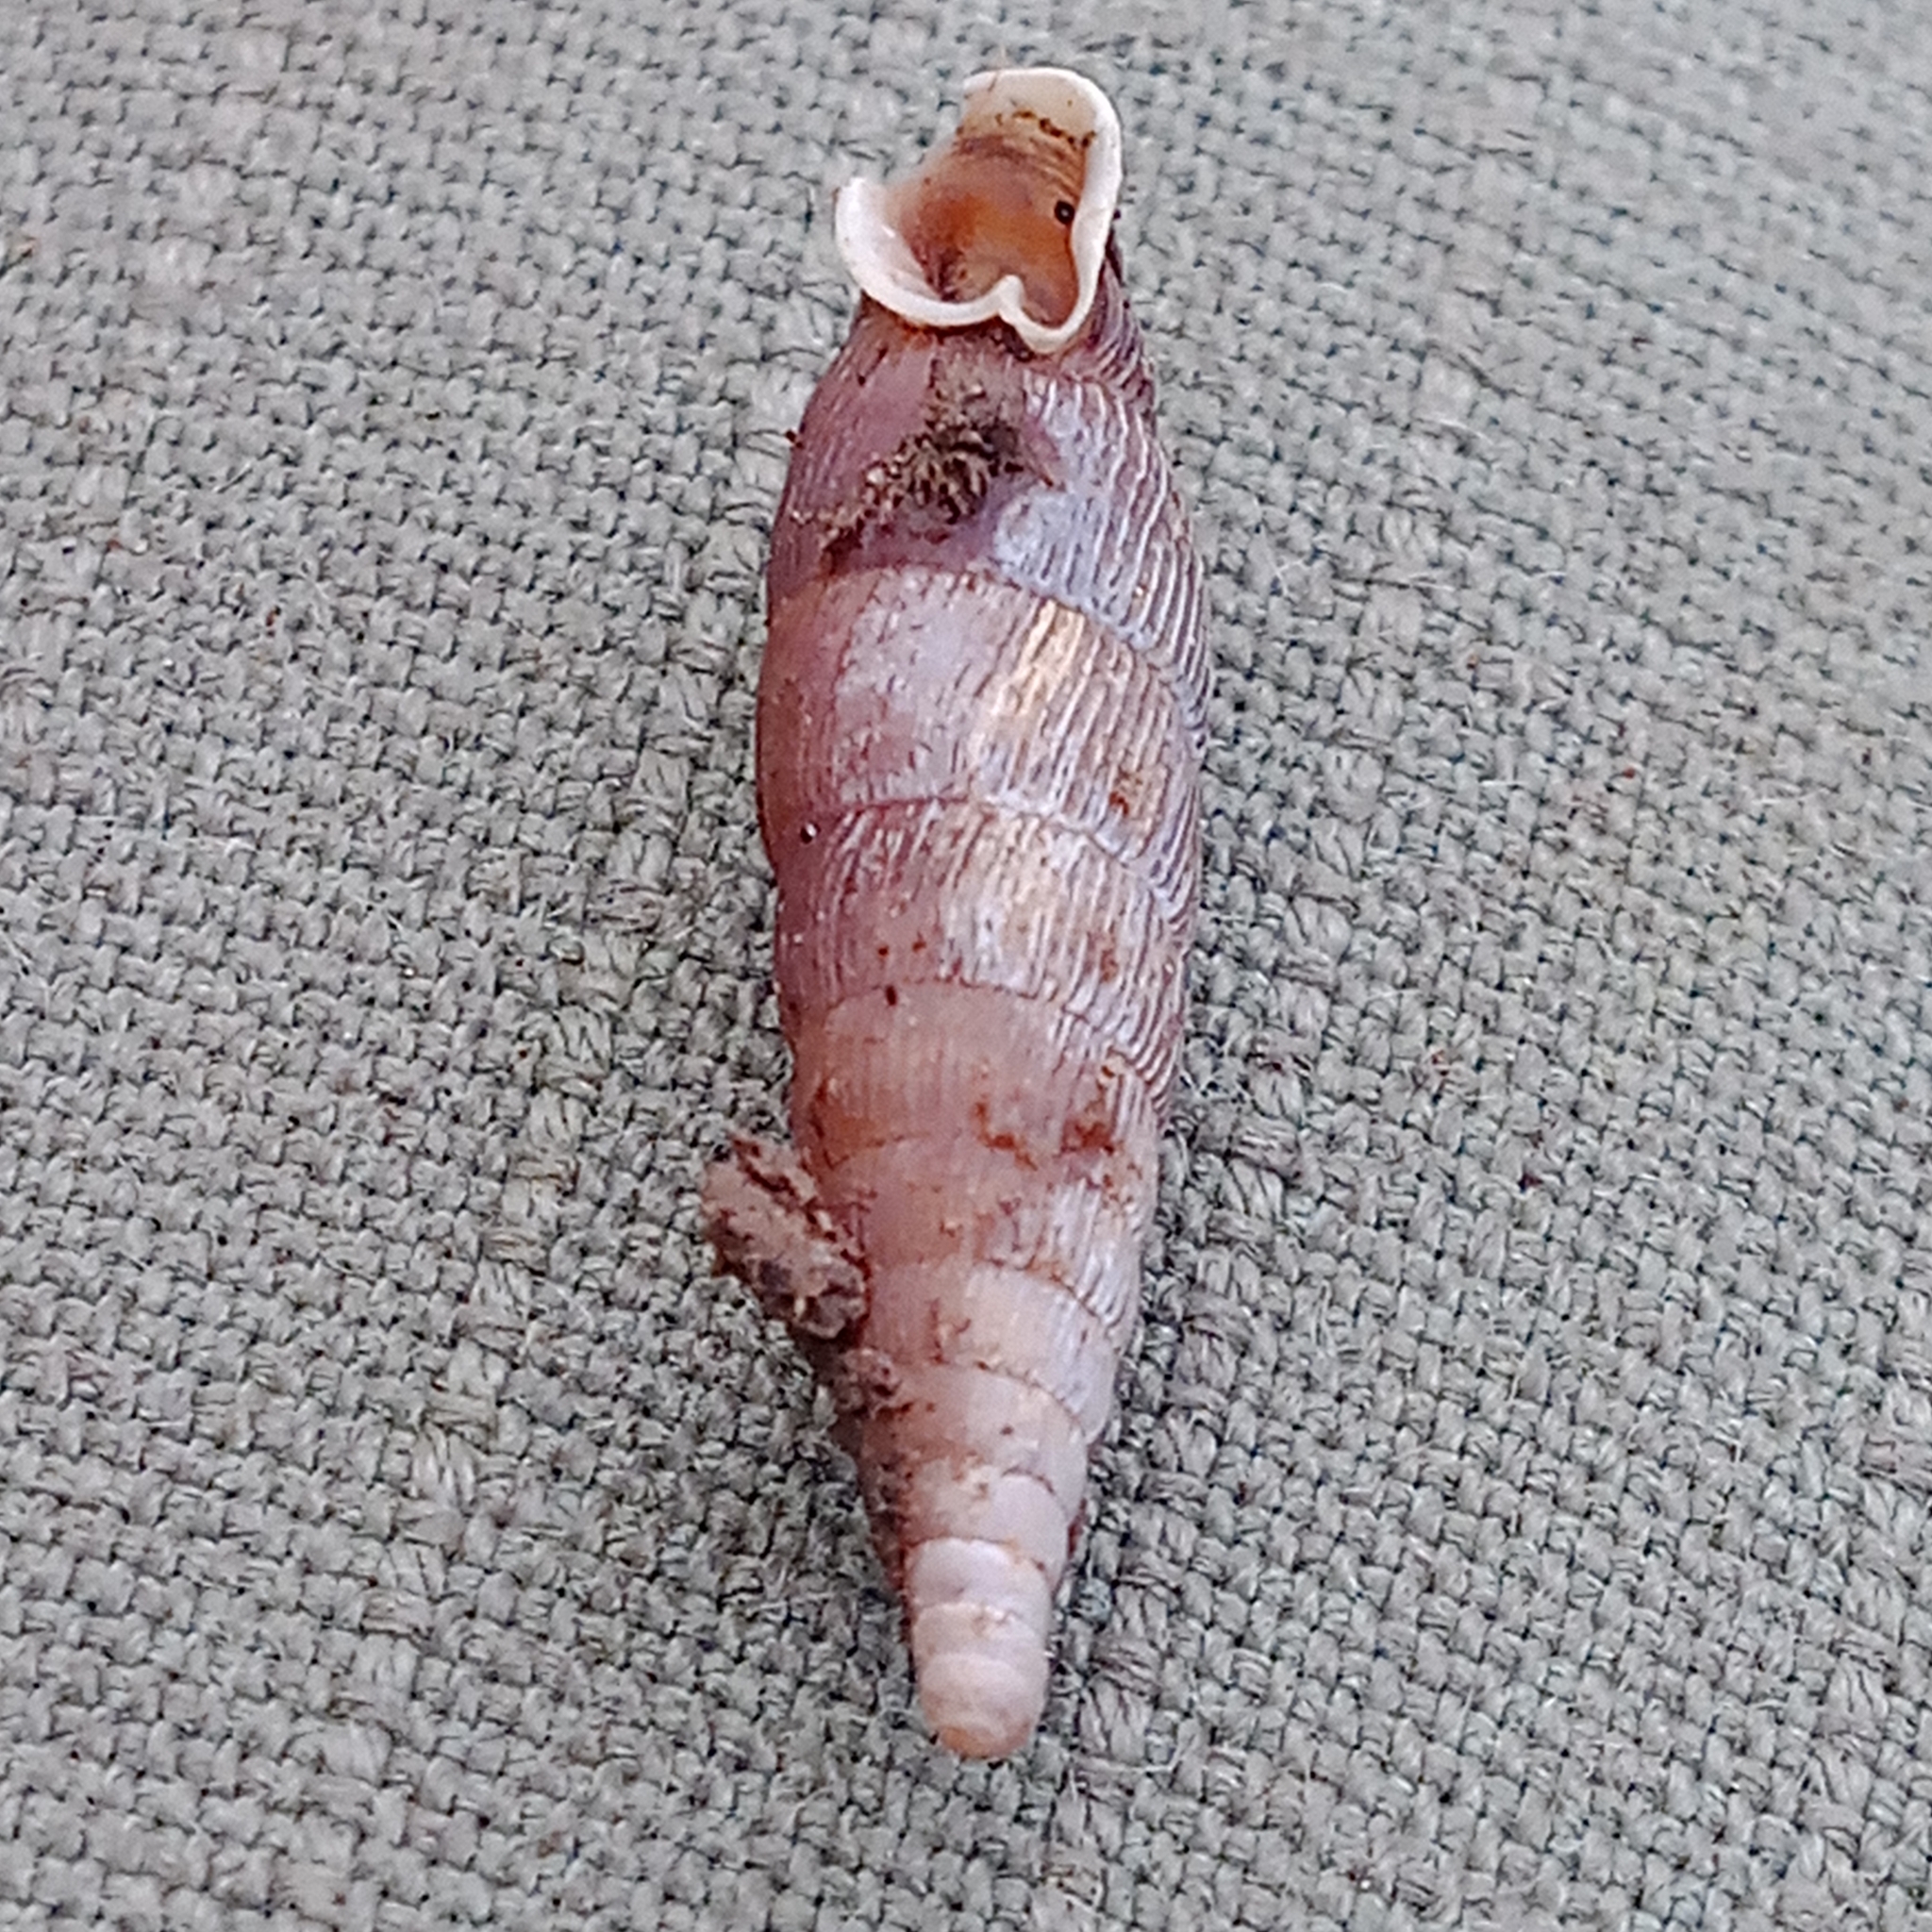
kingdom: Animalia
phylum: Mollusca
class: Gastropoda
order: Stylommatophora
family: Clausiliidae
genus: Macrogastra
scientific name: Macrogastra ventricosa
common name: Ventricose door snail
